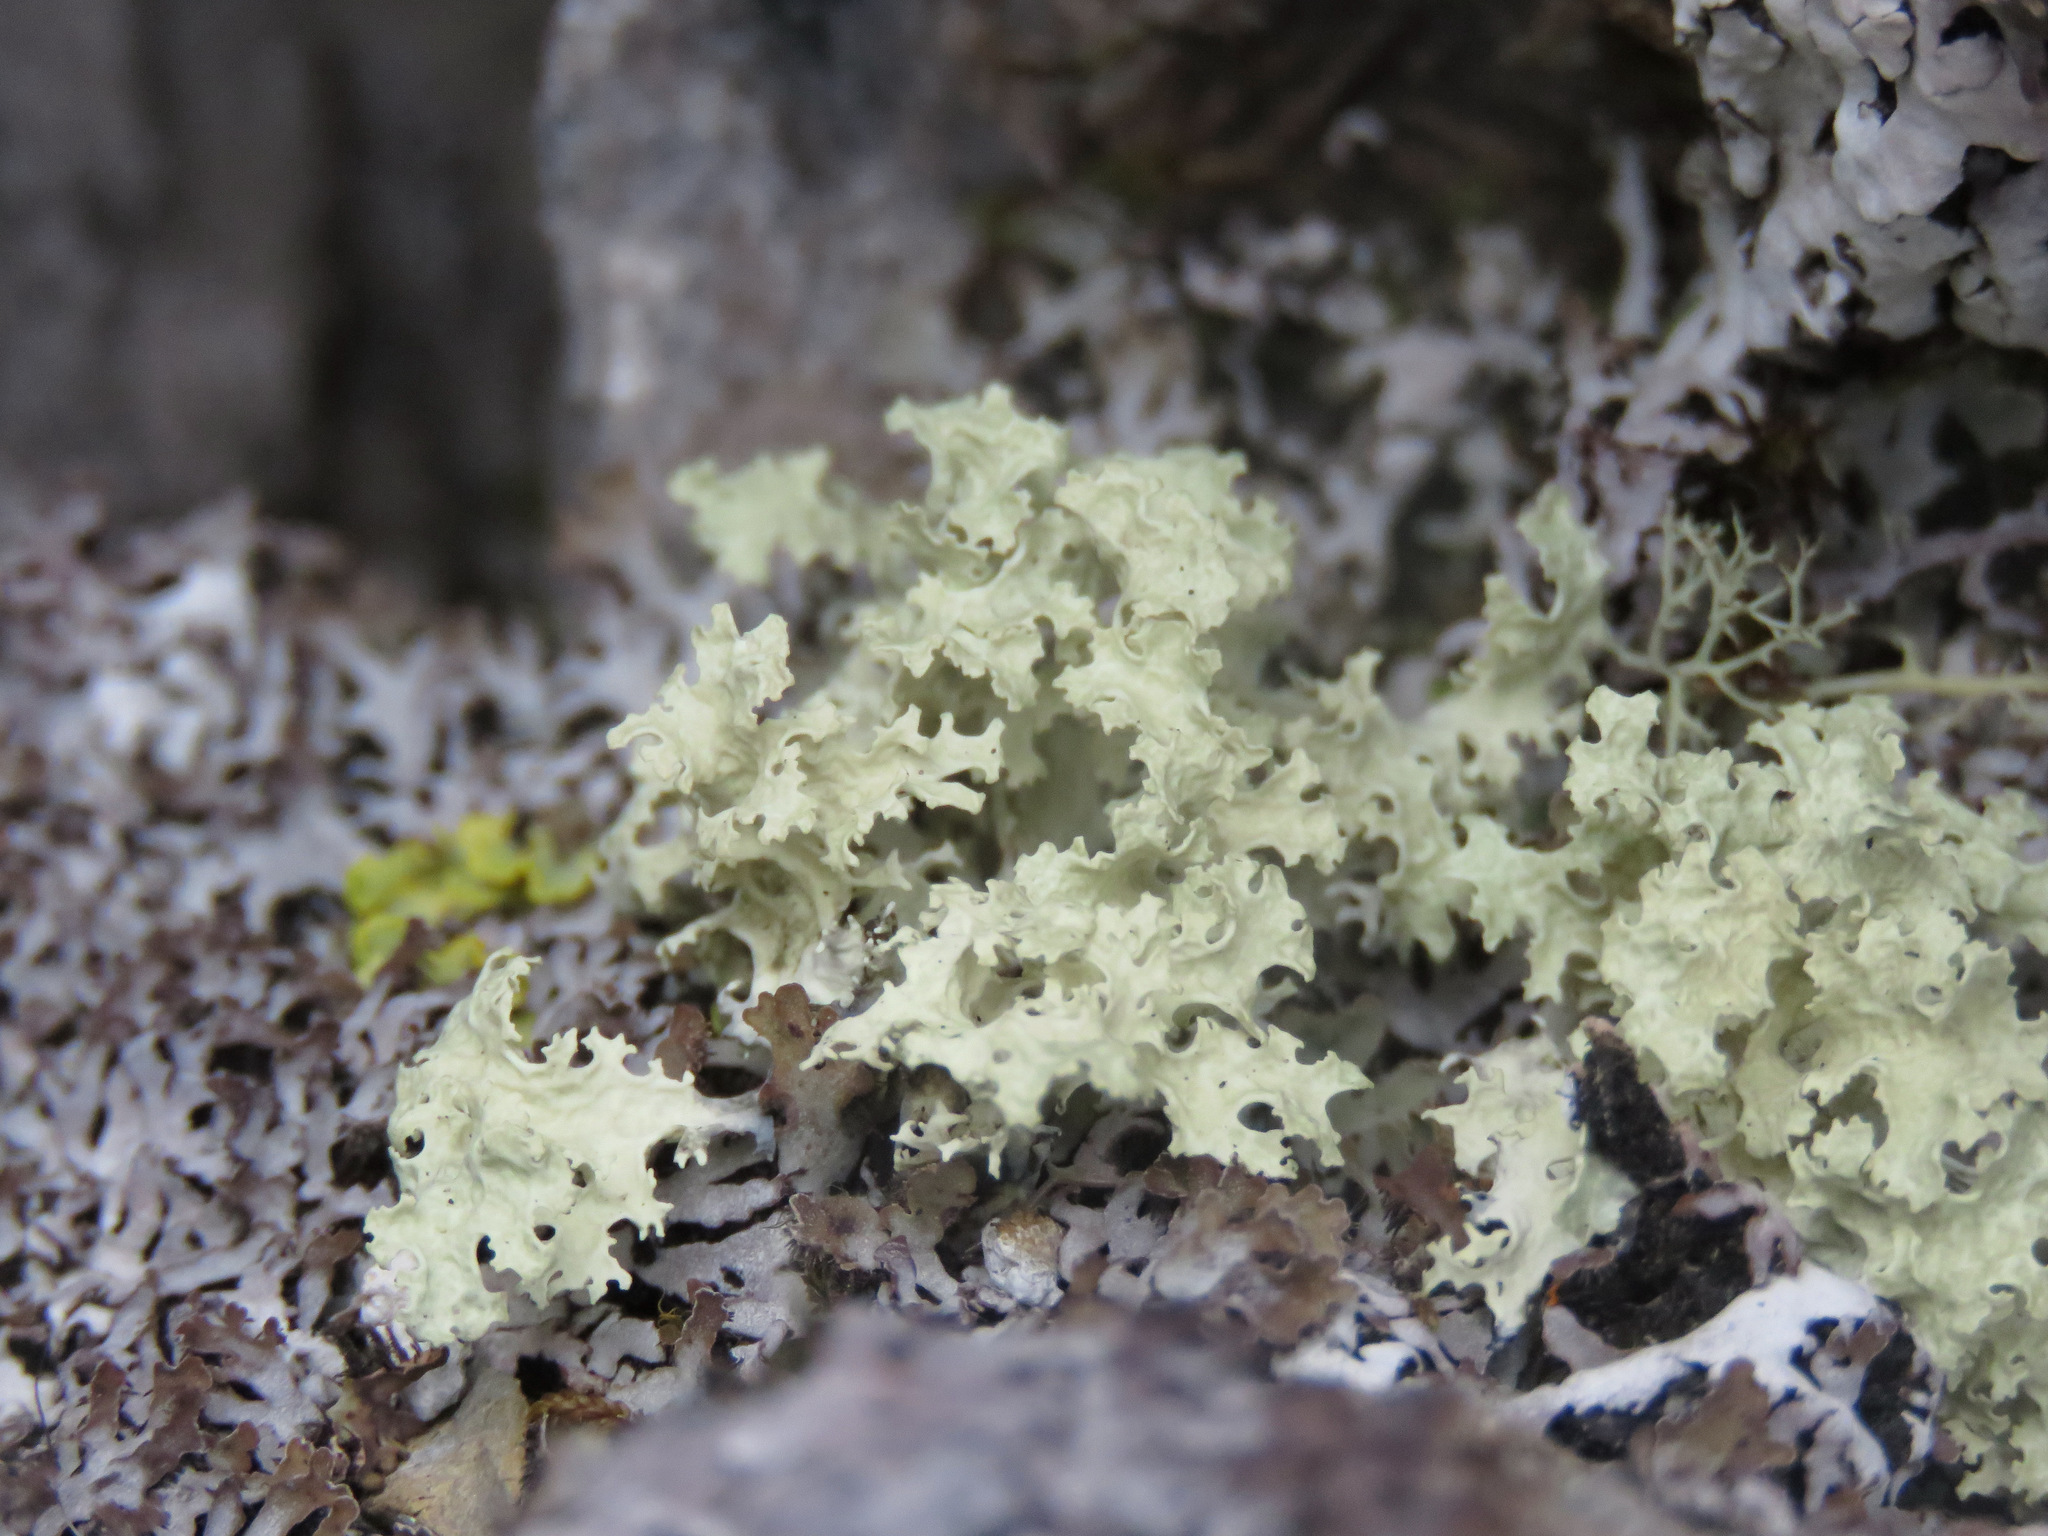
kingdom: Fungi
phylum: Ascomycota
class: Lecanoromycetes
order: Lecanorales
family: Parmeliaceae
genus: Nephromopsis
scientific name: Nephromopsis nivalis
